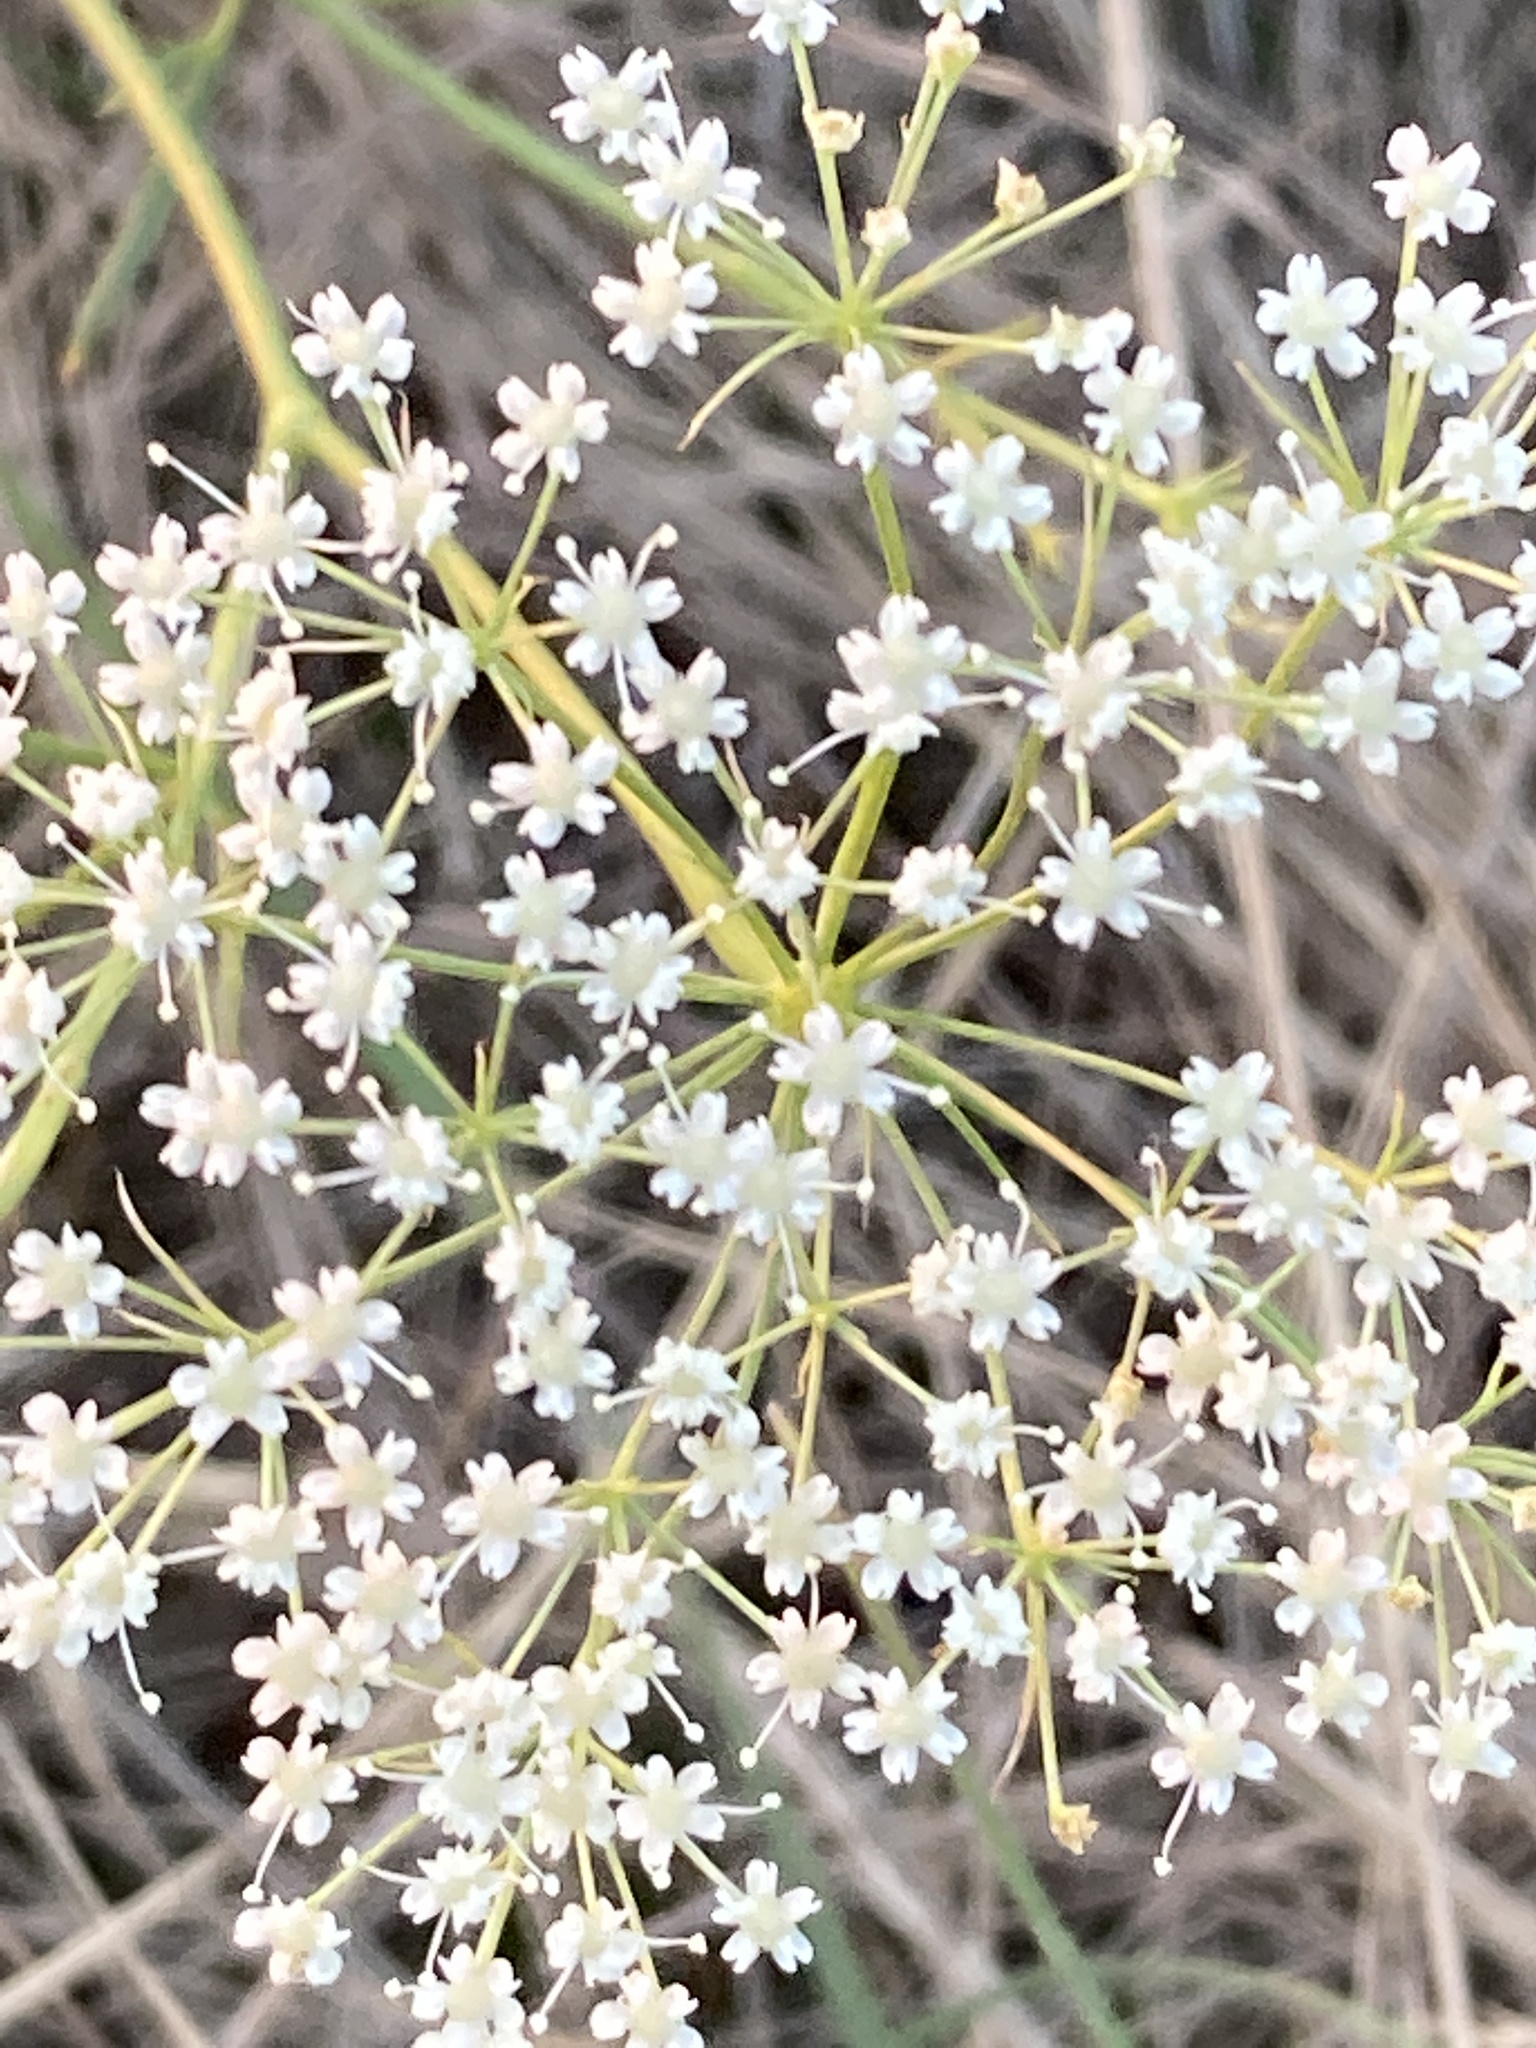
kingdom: Plantae
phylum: Tracheophyta
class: Magnoliopsida
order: Apiales
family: Apiaceae
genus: Falcaria
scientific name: Falcaria vulgaris
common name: Longleaf
